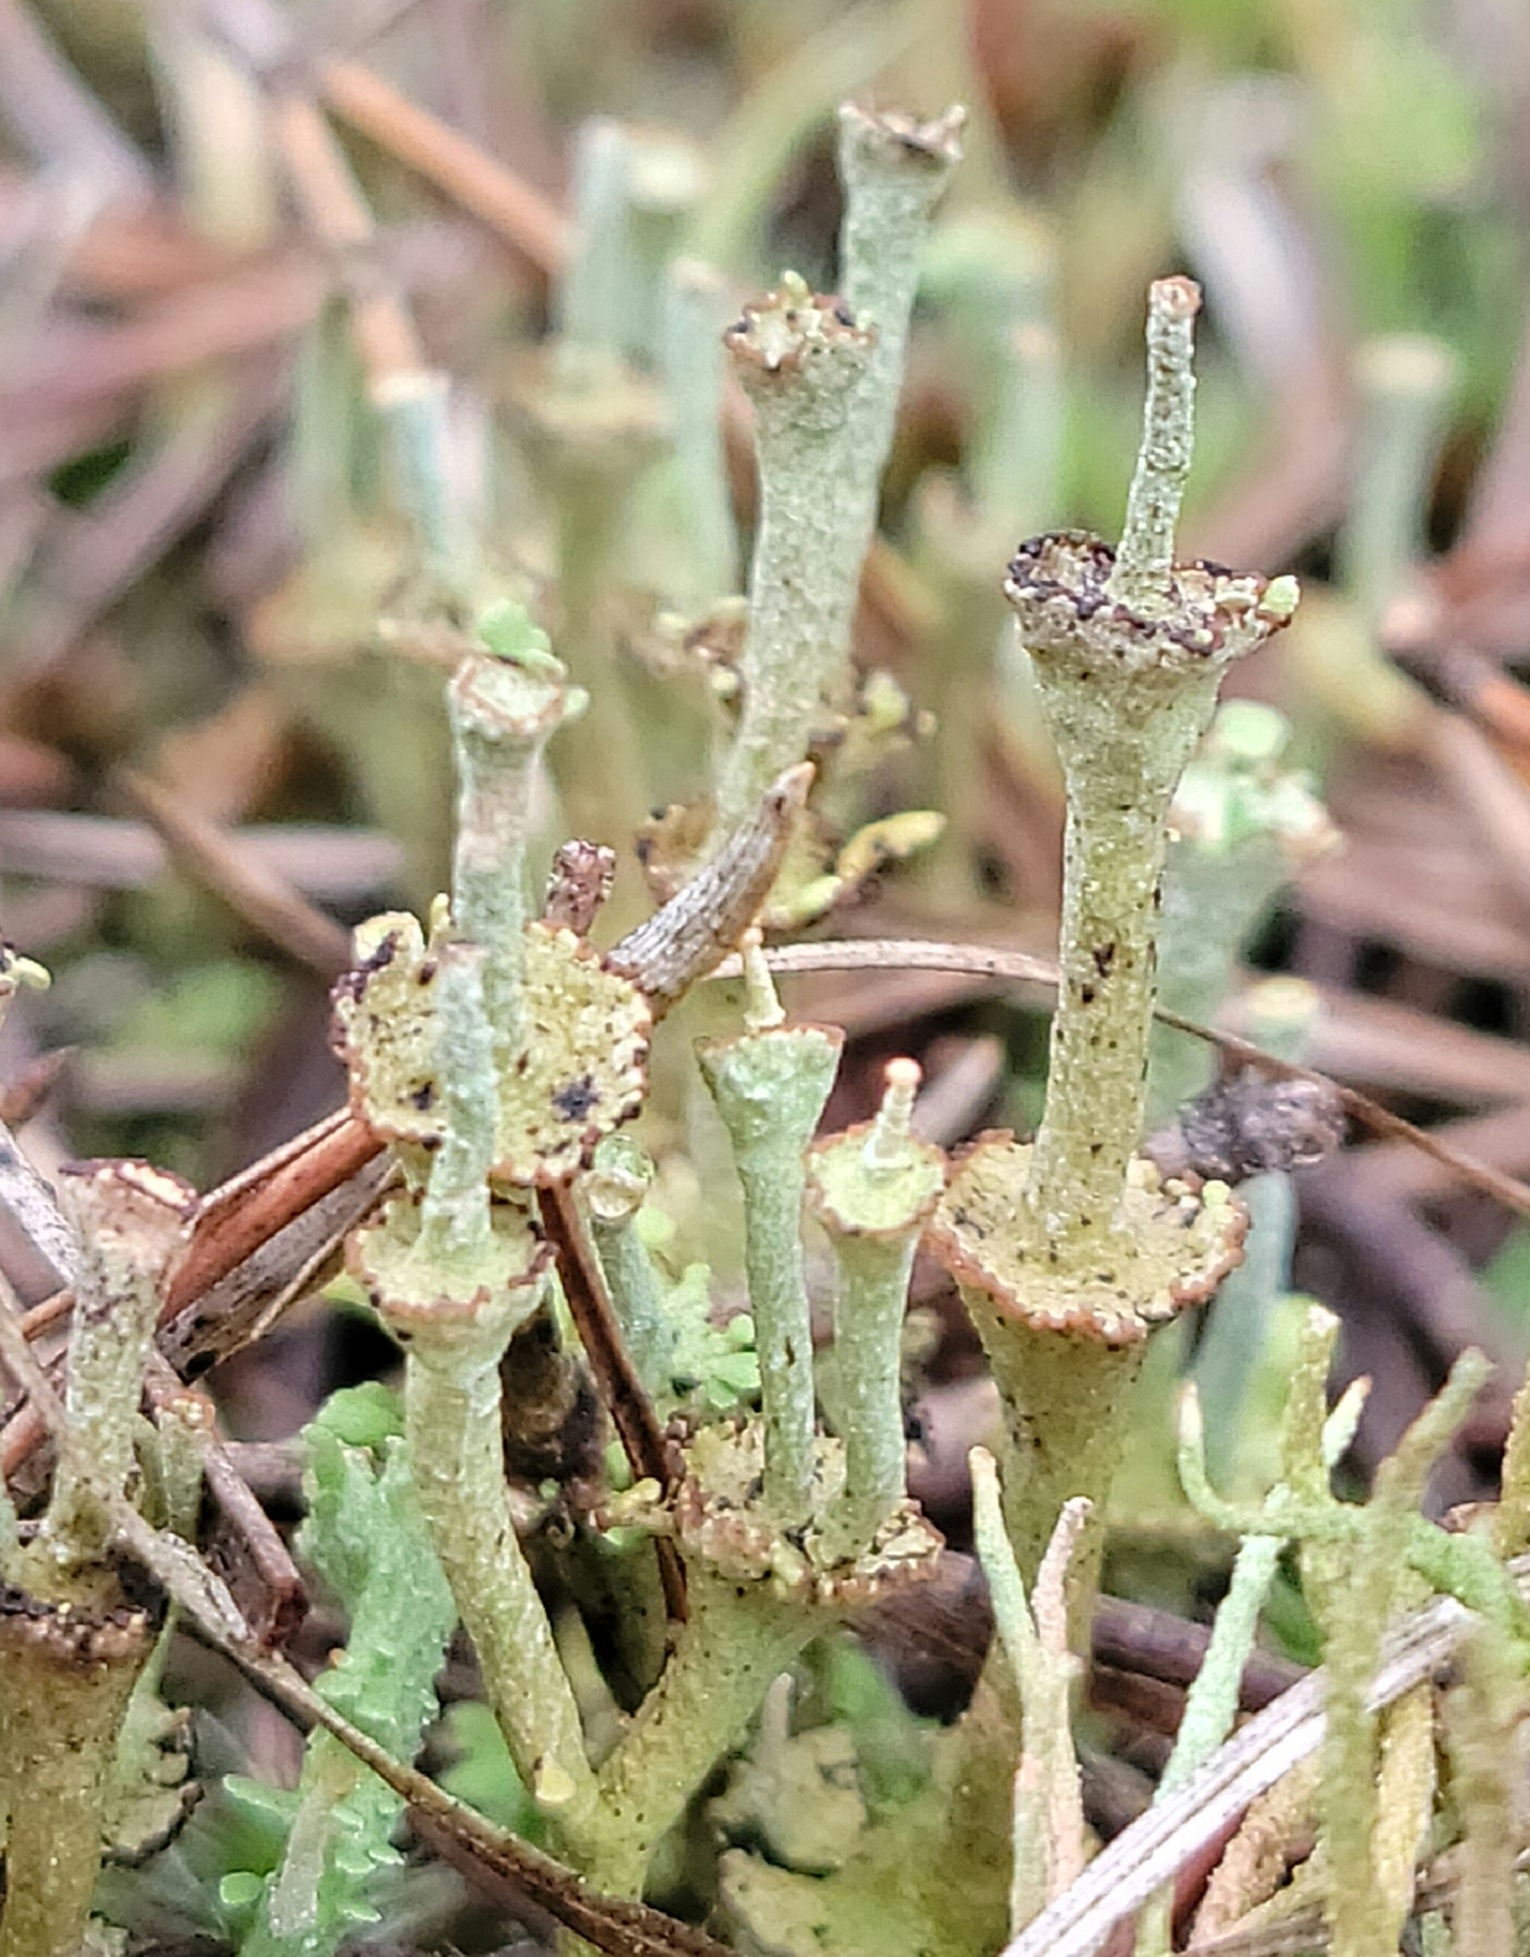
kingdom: Fungi
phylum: Ascomycota
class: Lecanoromycetes
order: Lecanorales
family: Cladoniaceae
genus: Cladonia
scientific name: Cladonia cervicornis
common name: Browned pixie-cup lichen
